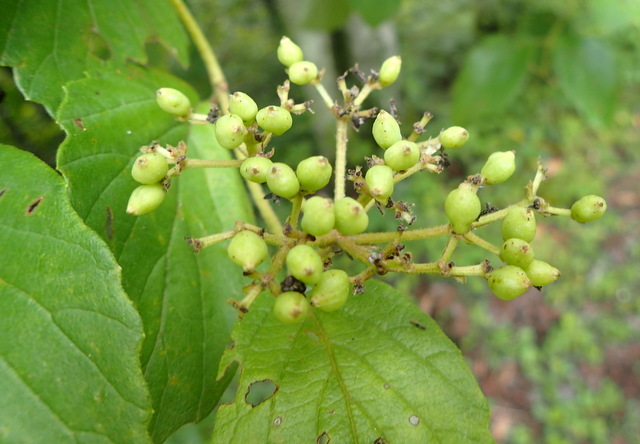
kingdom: Plantae
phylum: Tracheophyta
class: Magnoliopsida
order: Dipsacales
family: Viburnaceae
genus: Viburnum
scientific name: Viburnum scabrellum
